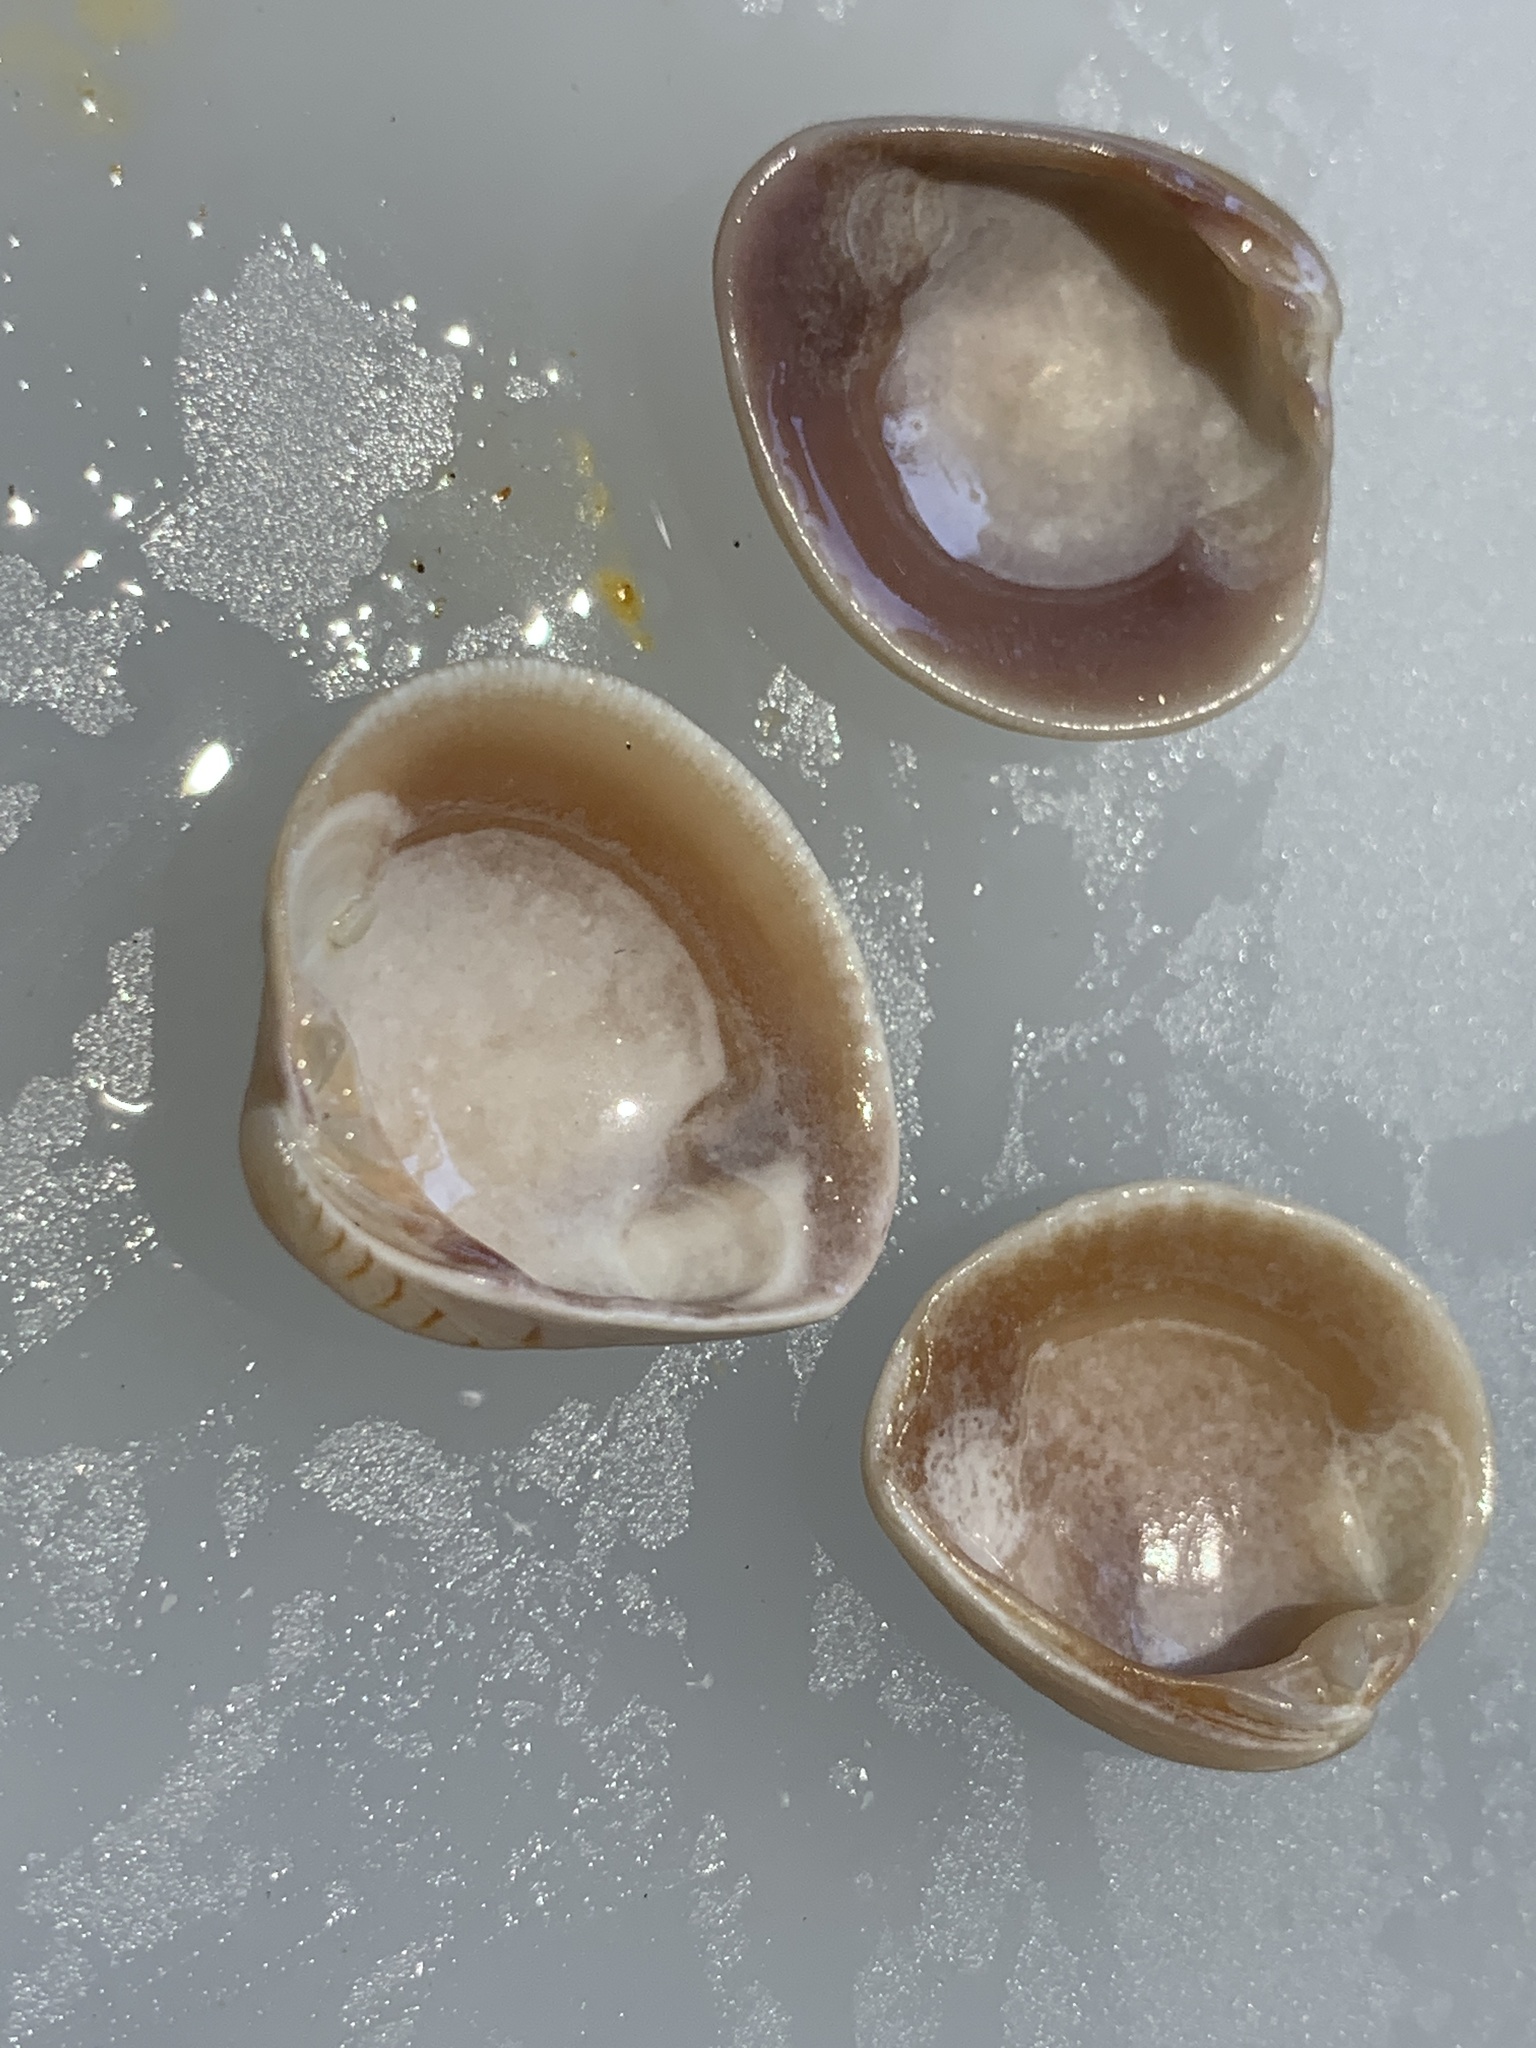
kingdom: Animalia
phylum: Mollusca
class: Bivalvia
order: Venerida
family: Veneridae
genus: Chione
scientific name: Chione elevata
